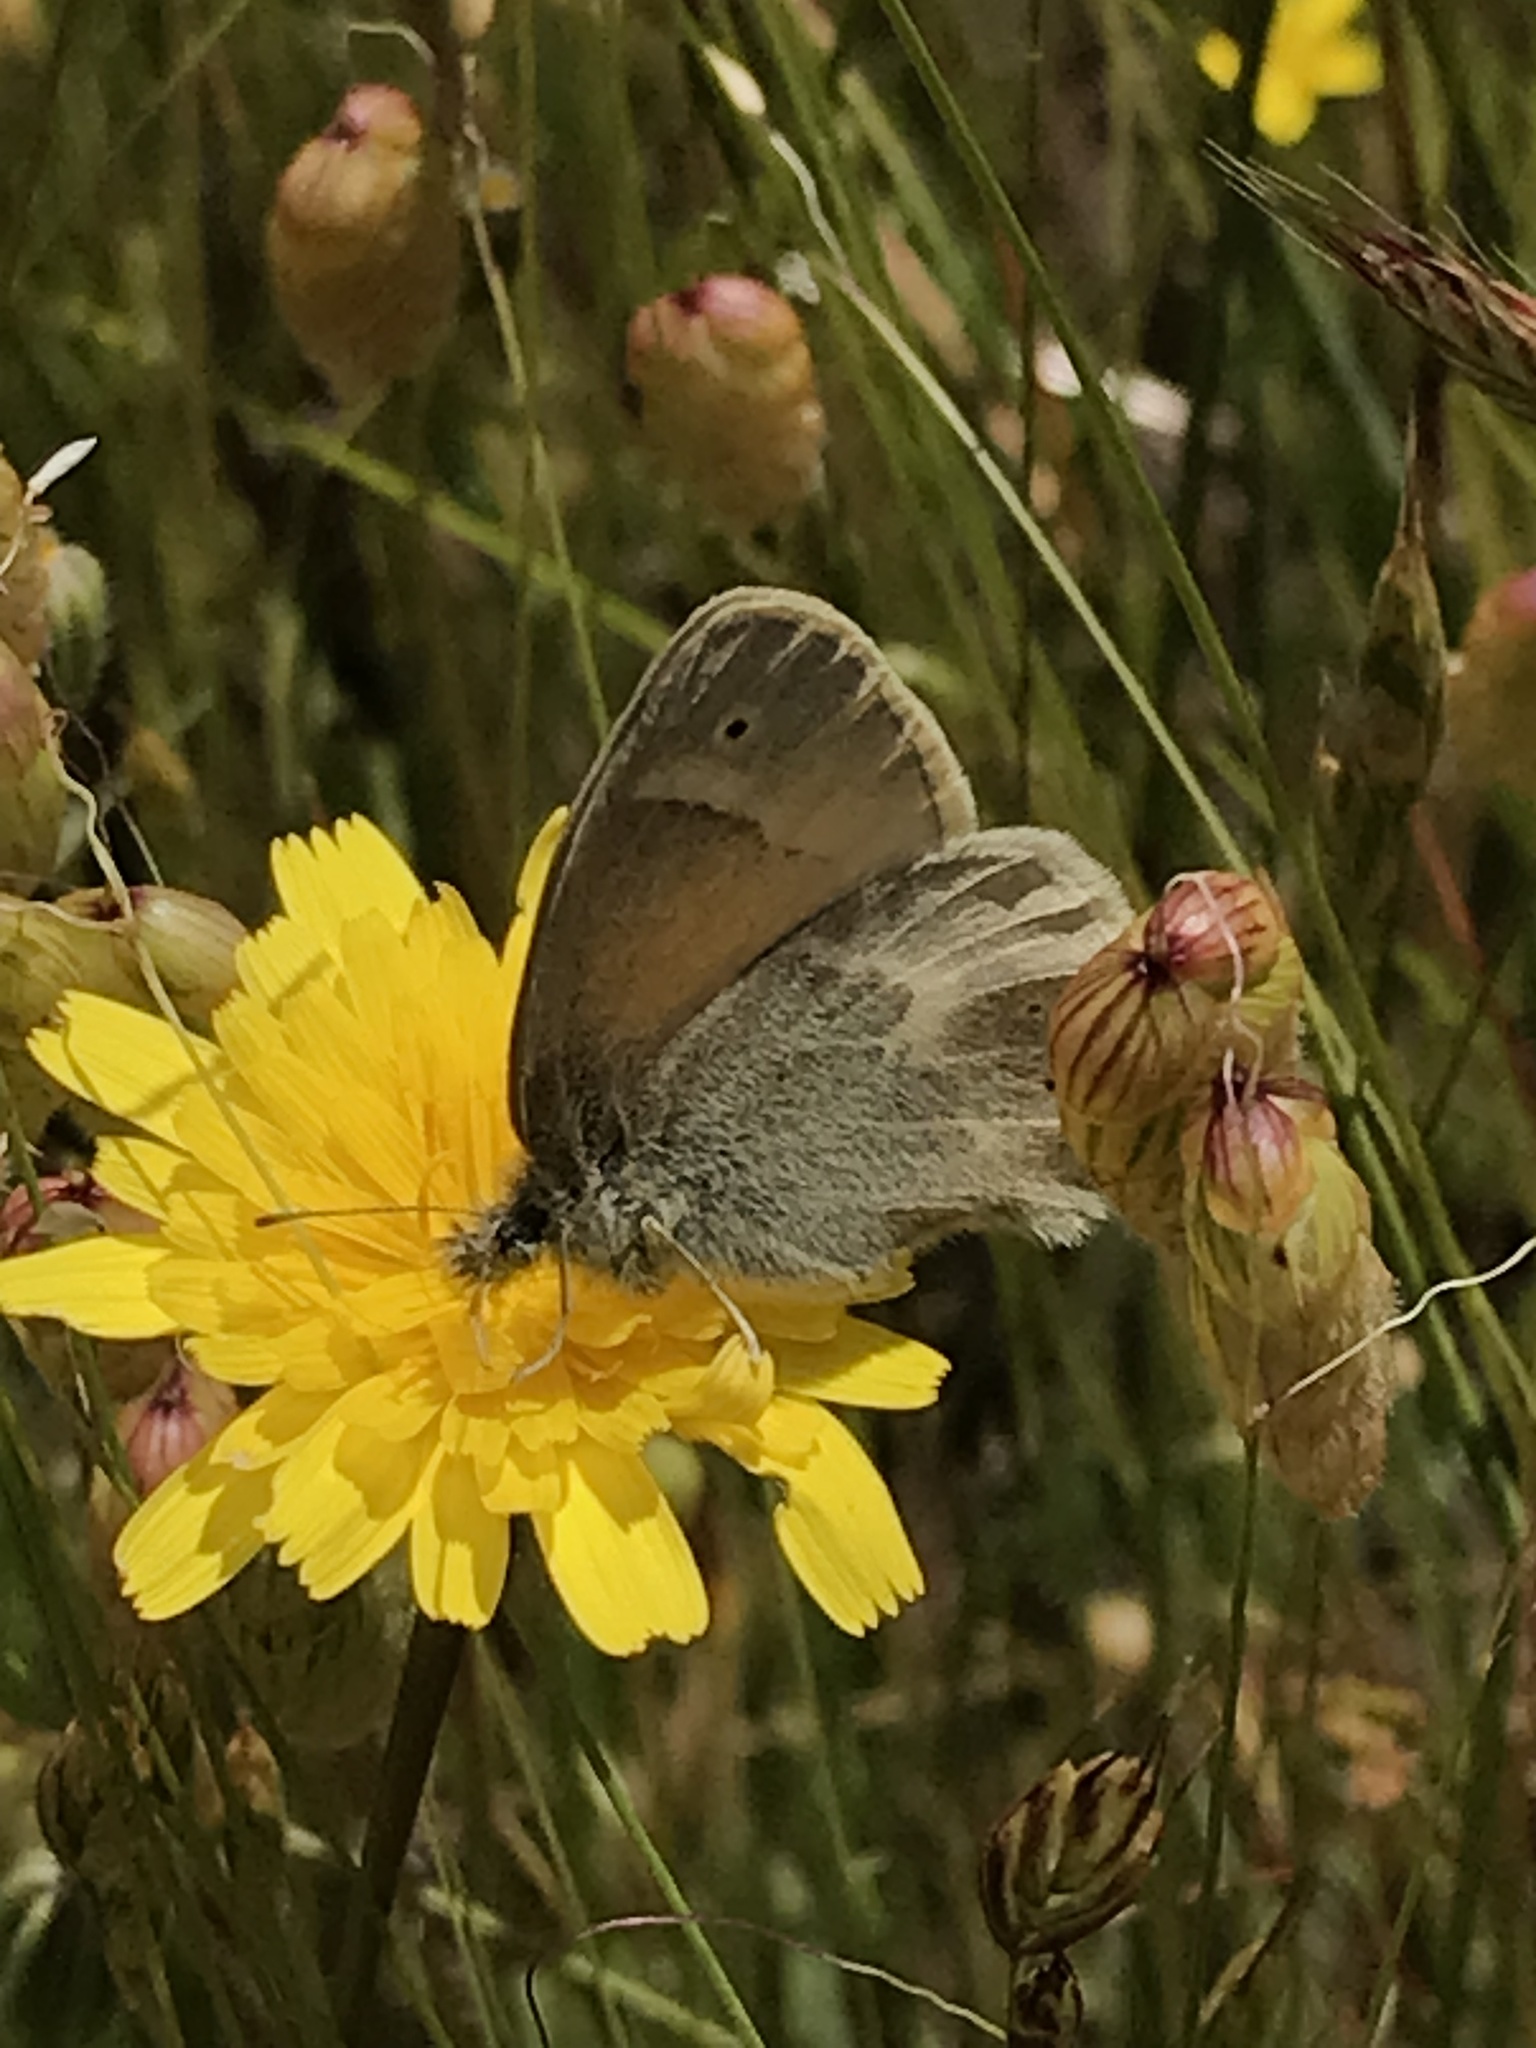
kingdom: Animalia
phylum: Arthropoda
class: Insecta
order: Lepidoptera
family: Nymphalidae
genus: Coenonympha
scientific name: Coenonympha california
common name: Common ringlet
